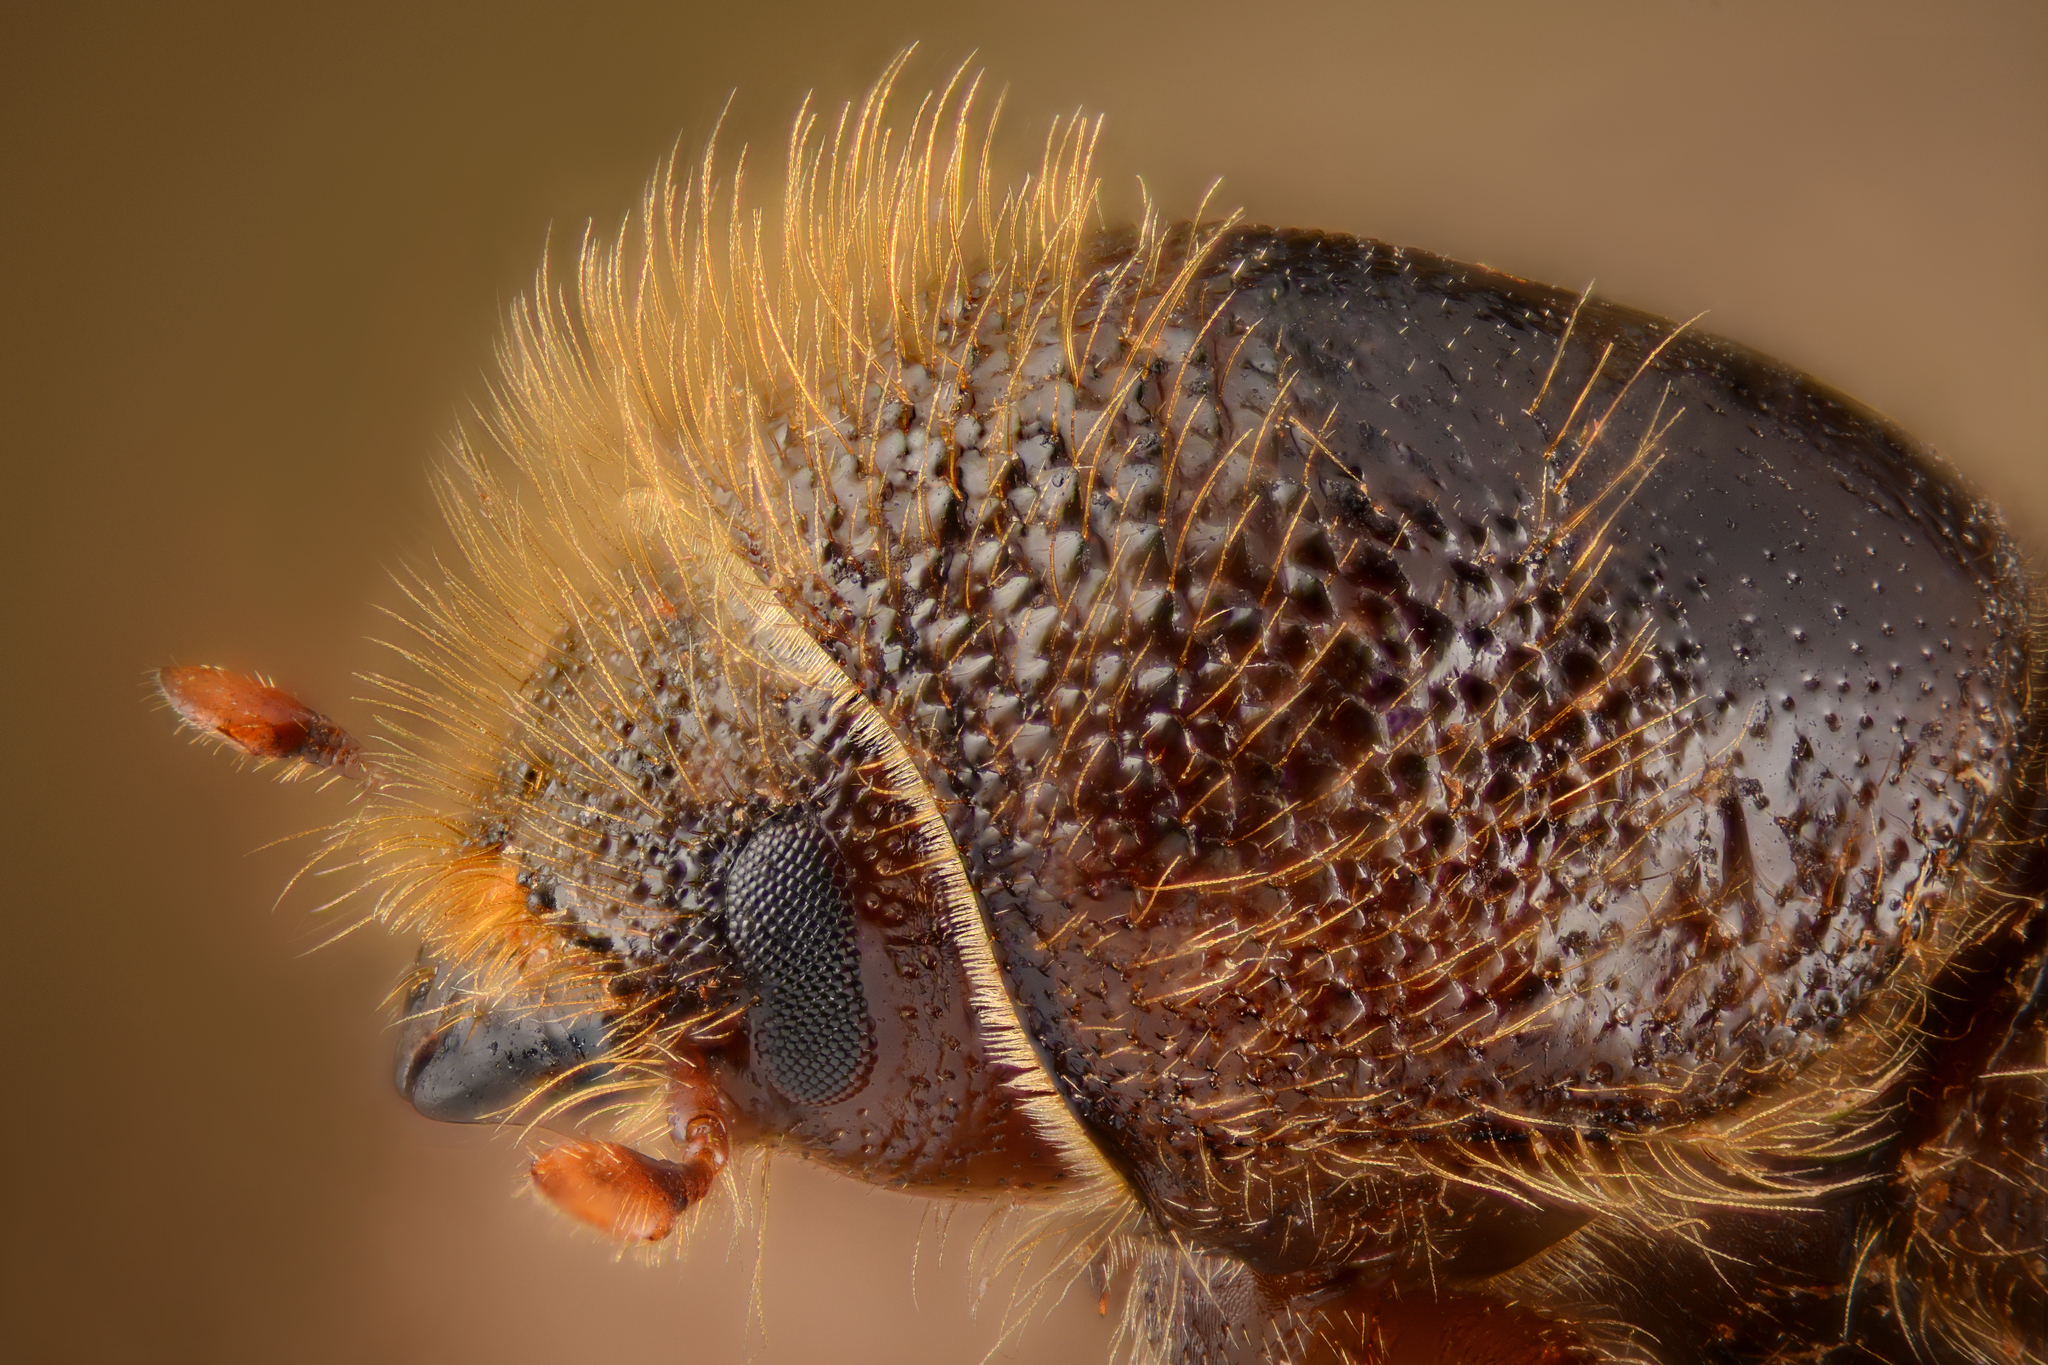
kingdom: Animalia
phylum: Arthropoda
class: Insecta
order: Coleoptera
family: Curculionidae
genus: Ips
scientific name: Ips typographus
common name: Eight-toothed spruce bark beetle
